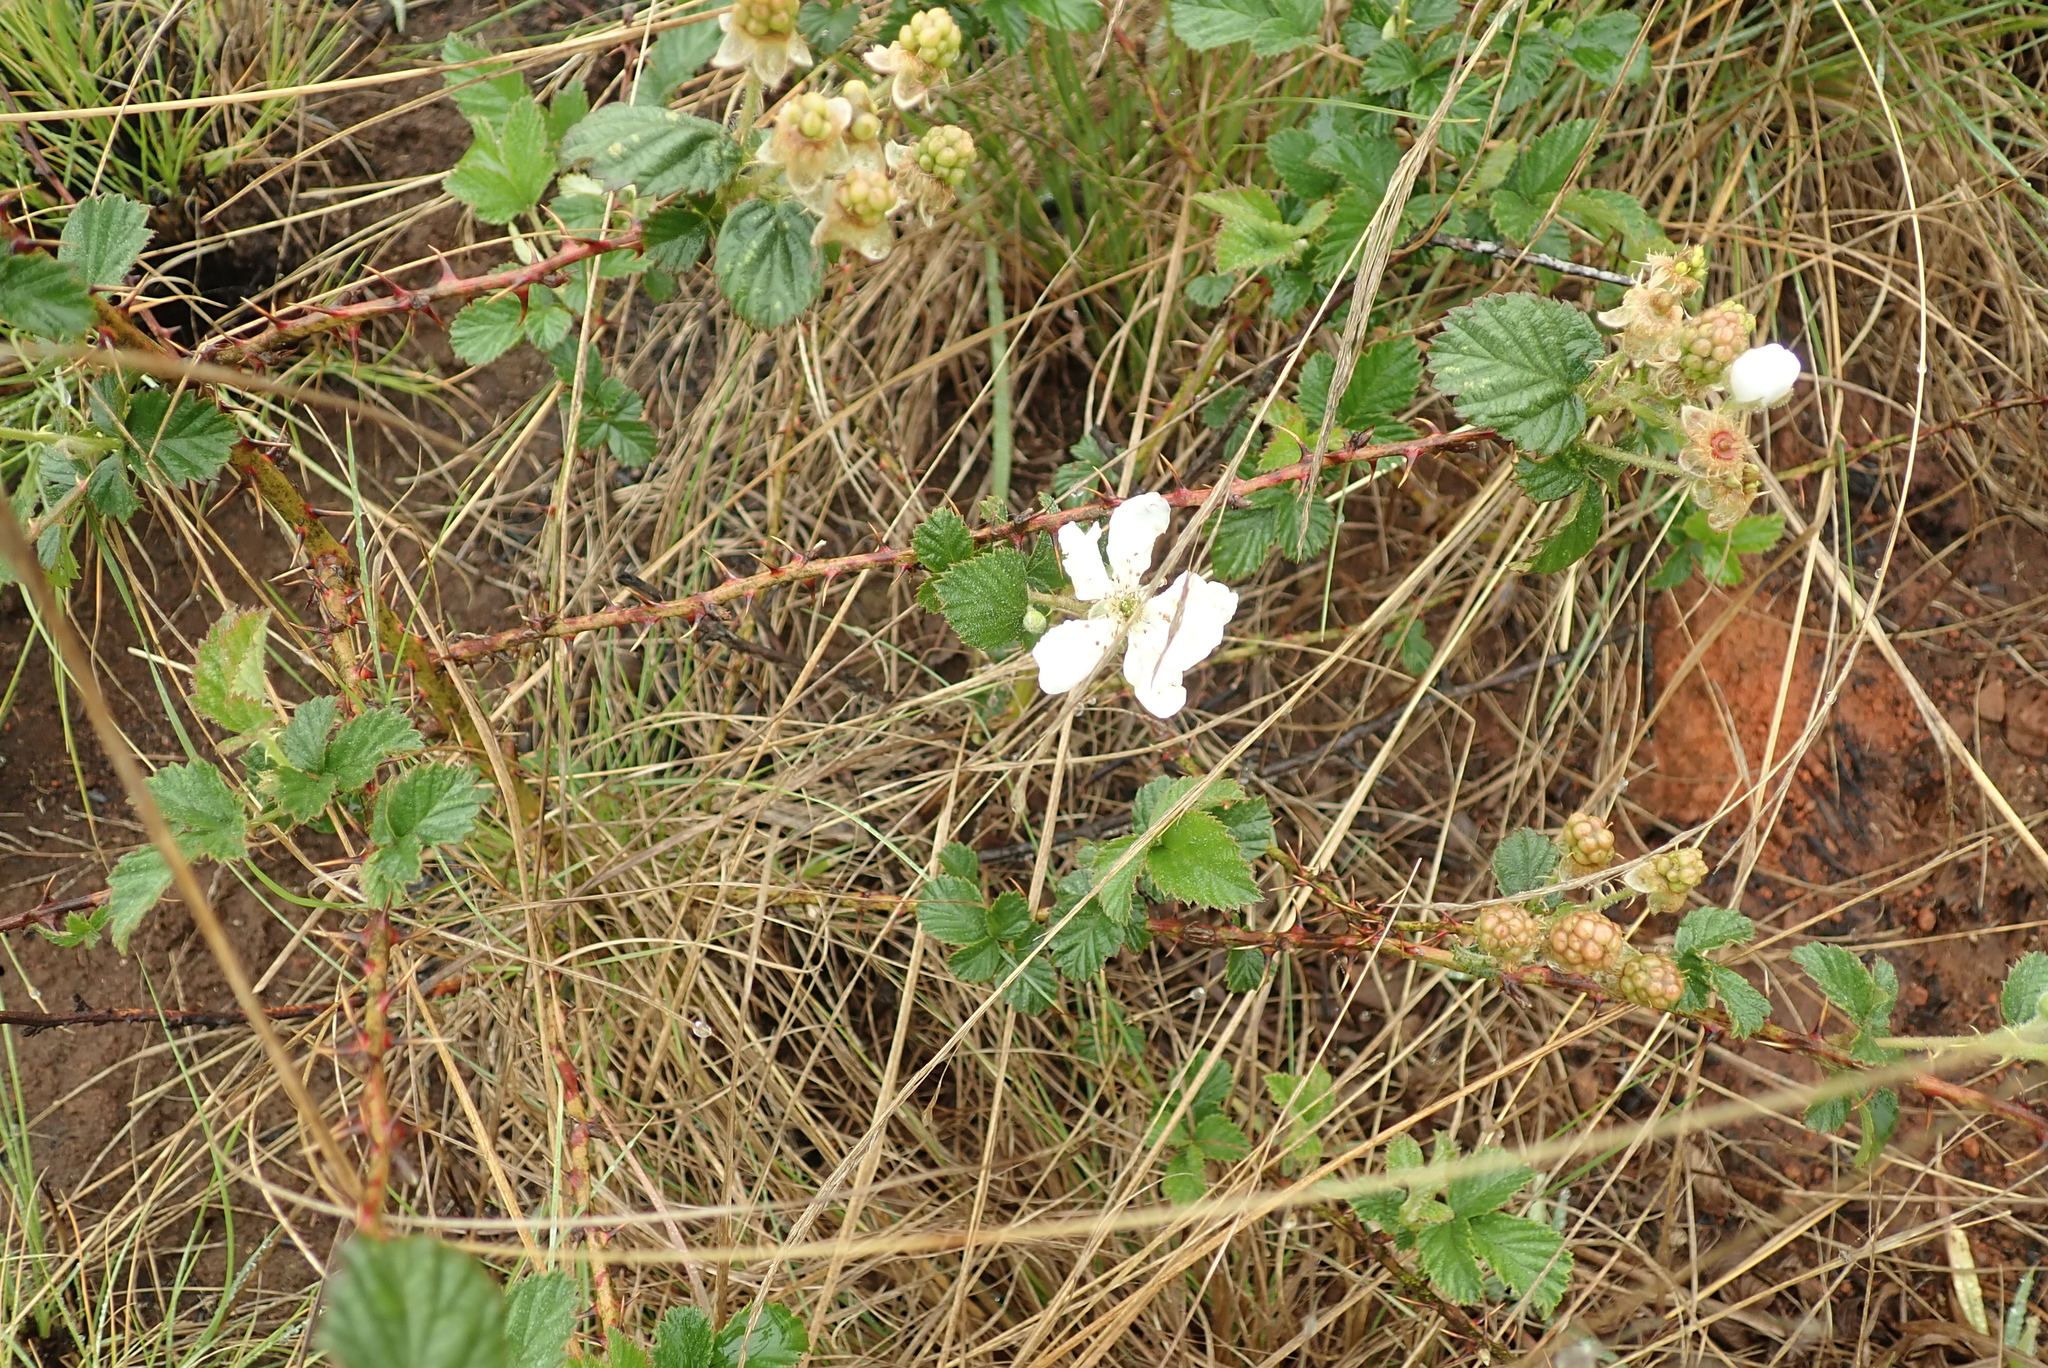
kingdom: Plantae
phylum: Tracheophyta
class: Magnoliopsida
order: Rosales
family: Rosaceae
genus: Rubus
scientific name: Rubus cuneifolius
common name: American bramble
